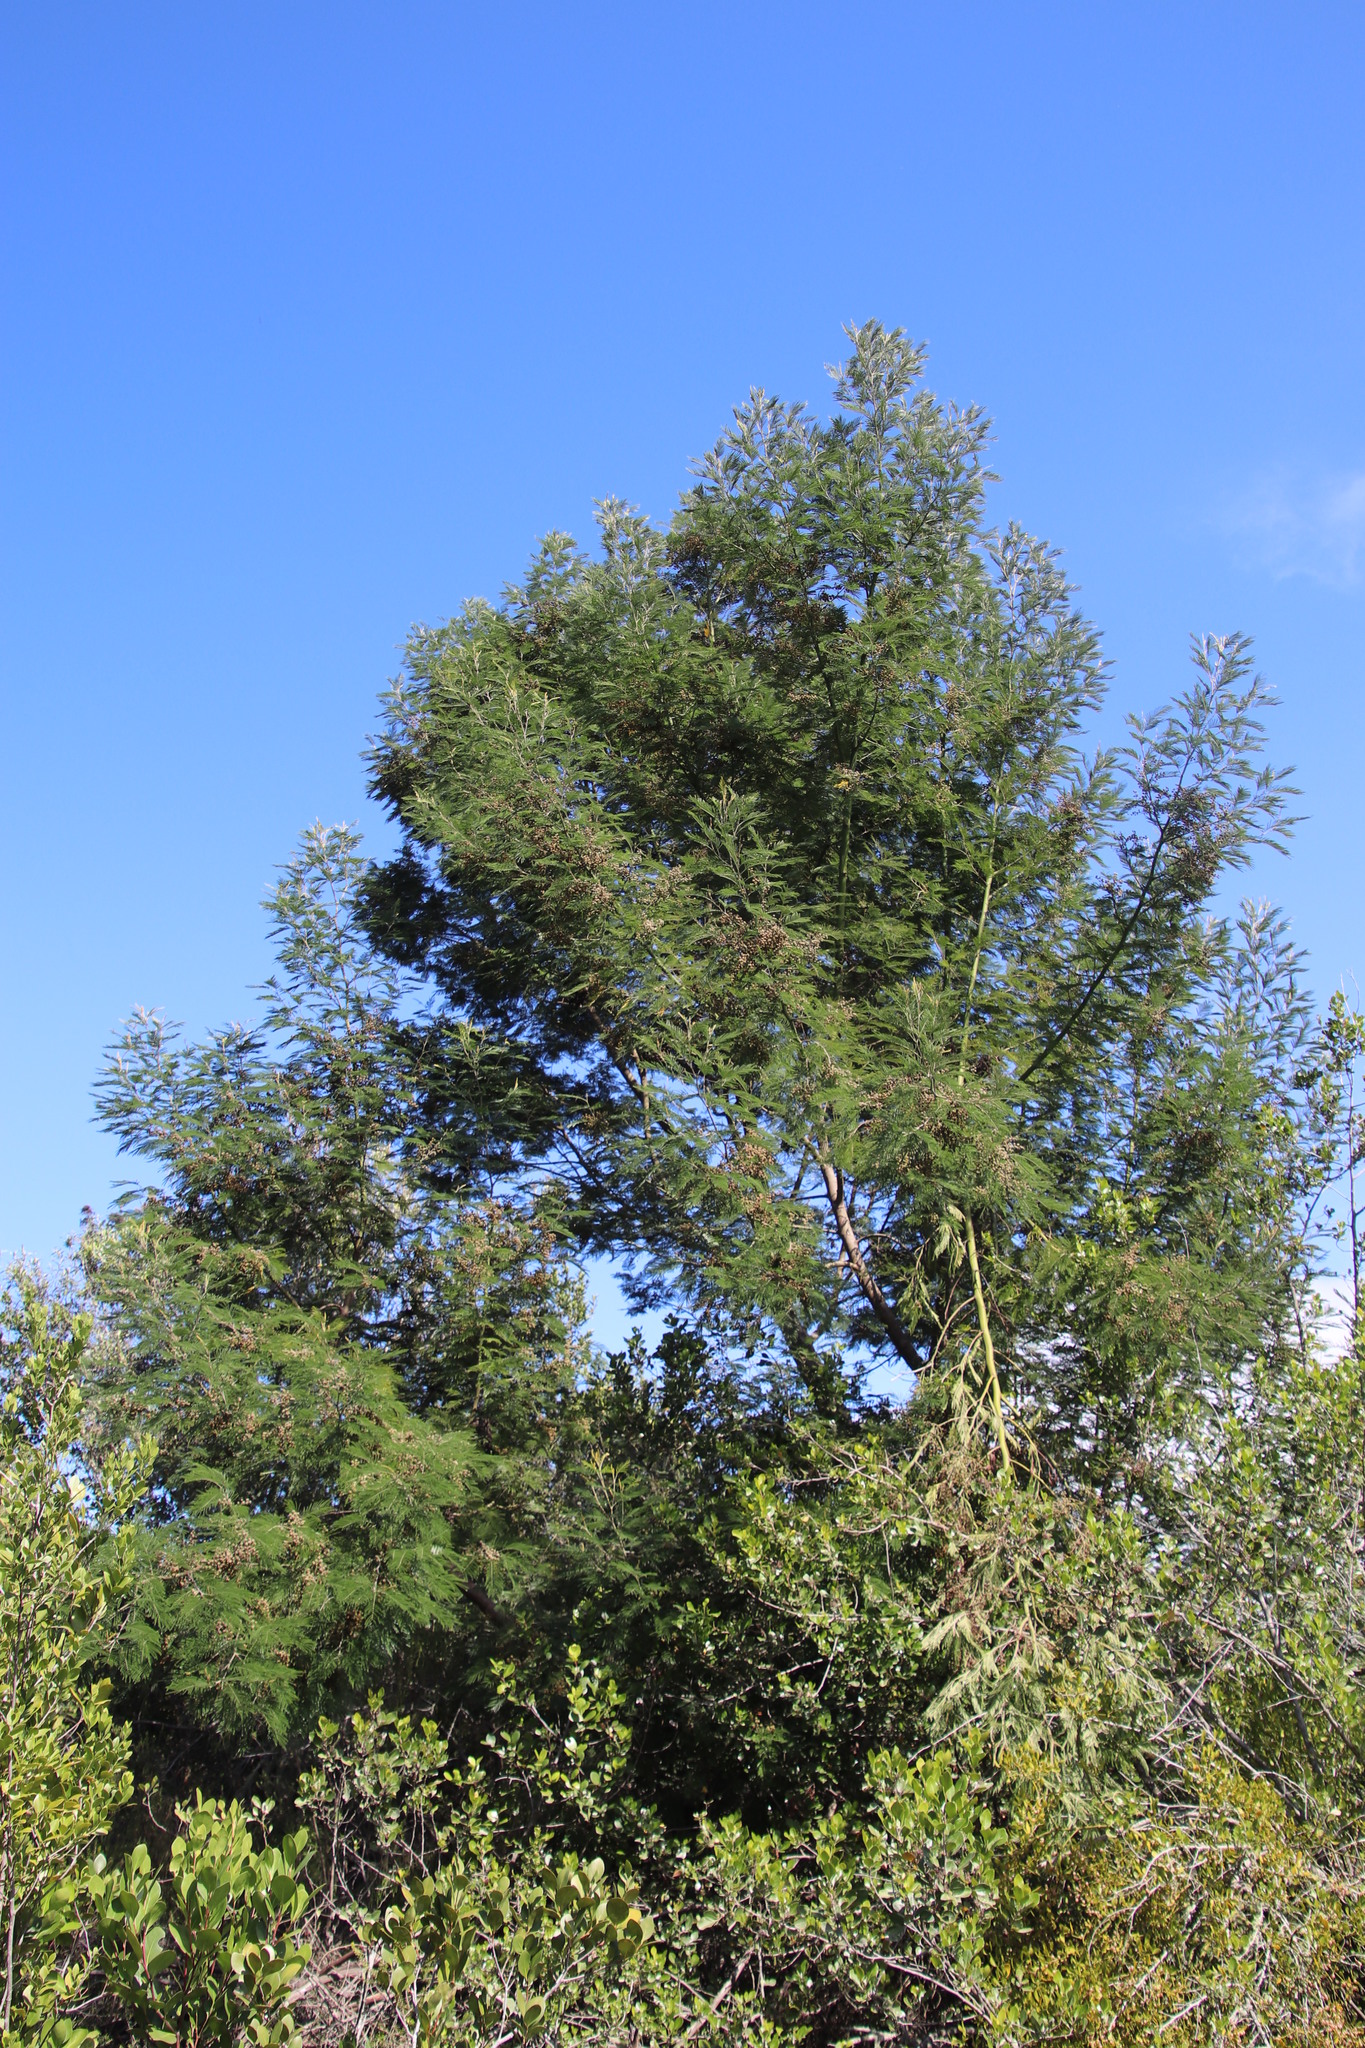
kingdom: Plantae
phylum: Tracheophyta
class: Magnoliopsida
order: Fabales
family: Fabaceae
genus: Acacia
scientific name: Acacia mearnsii
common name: Black wattle
